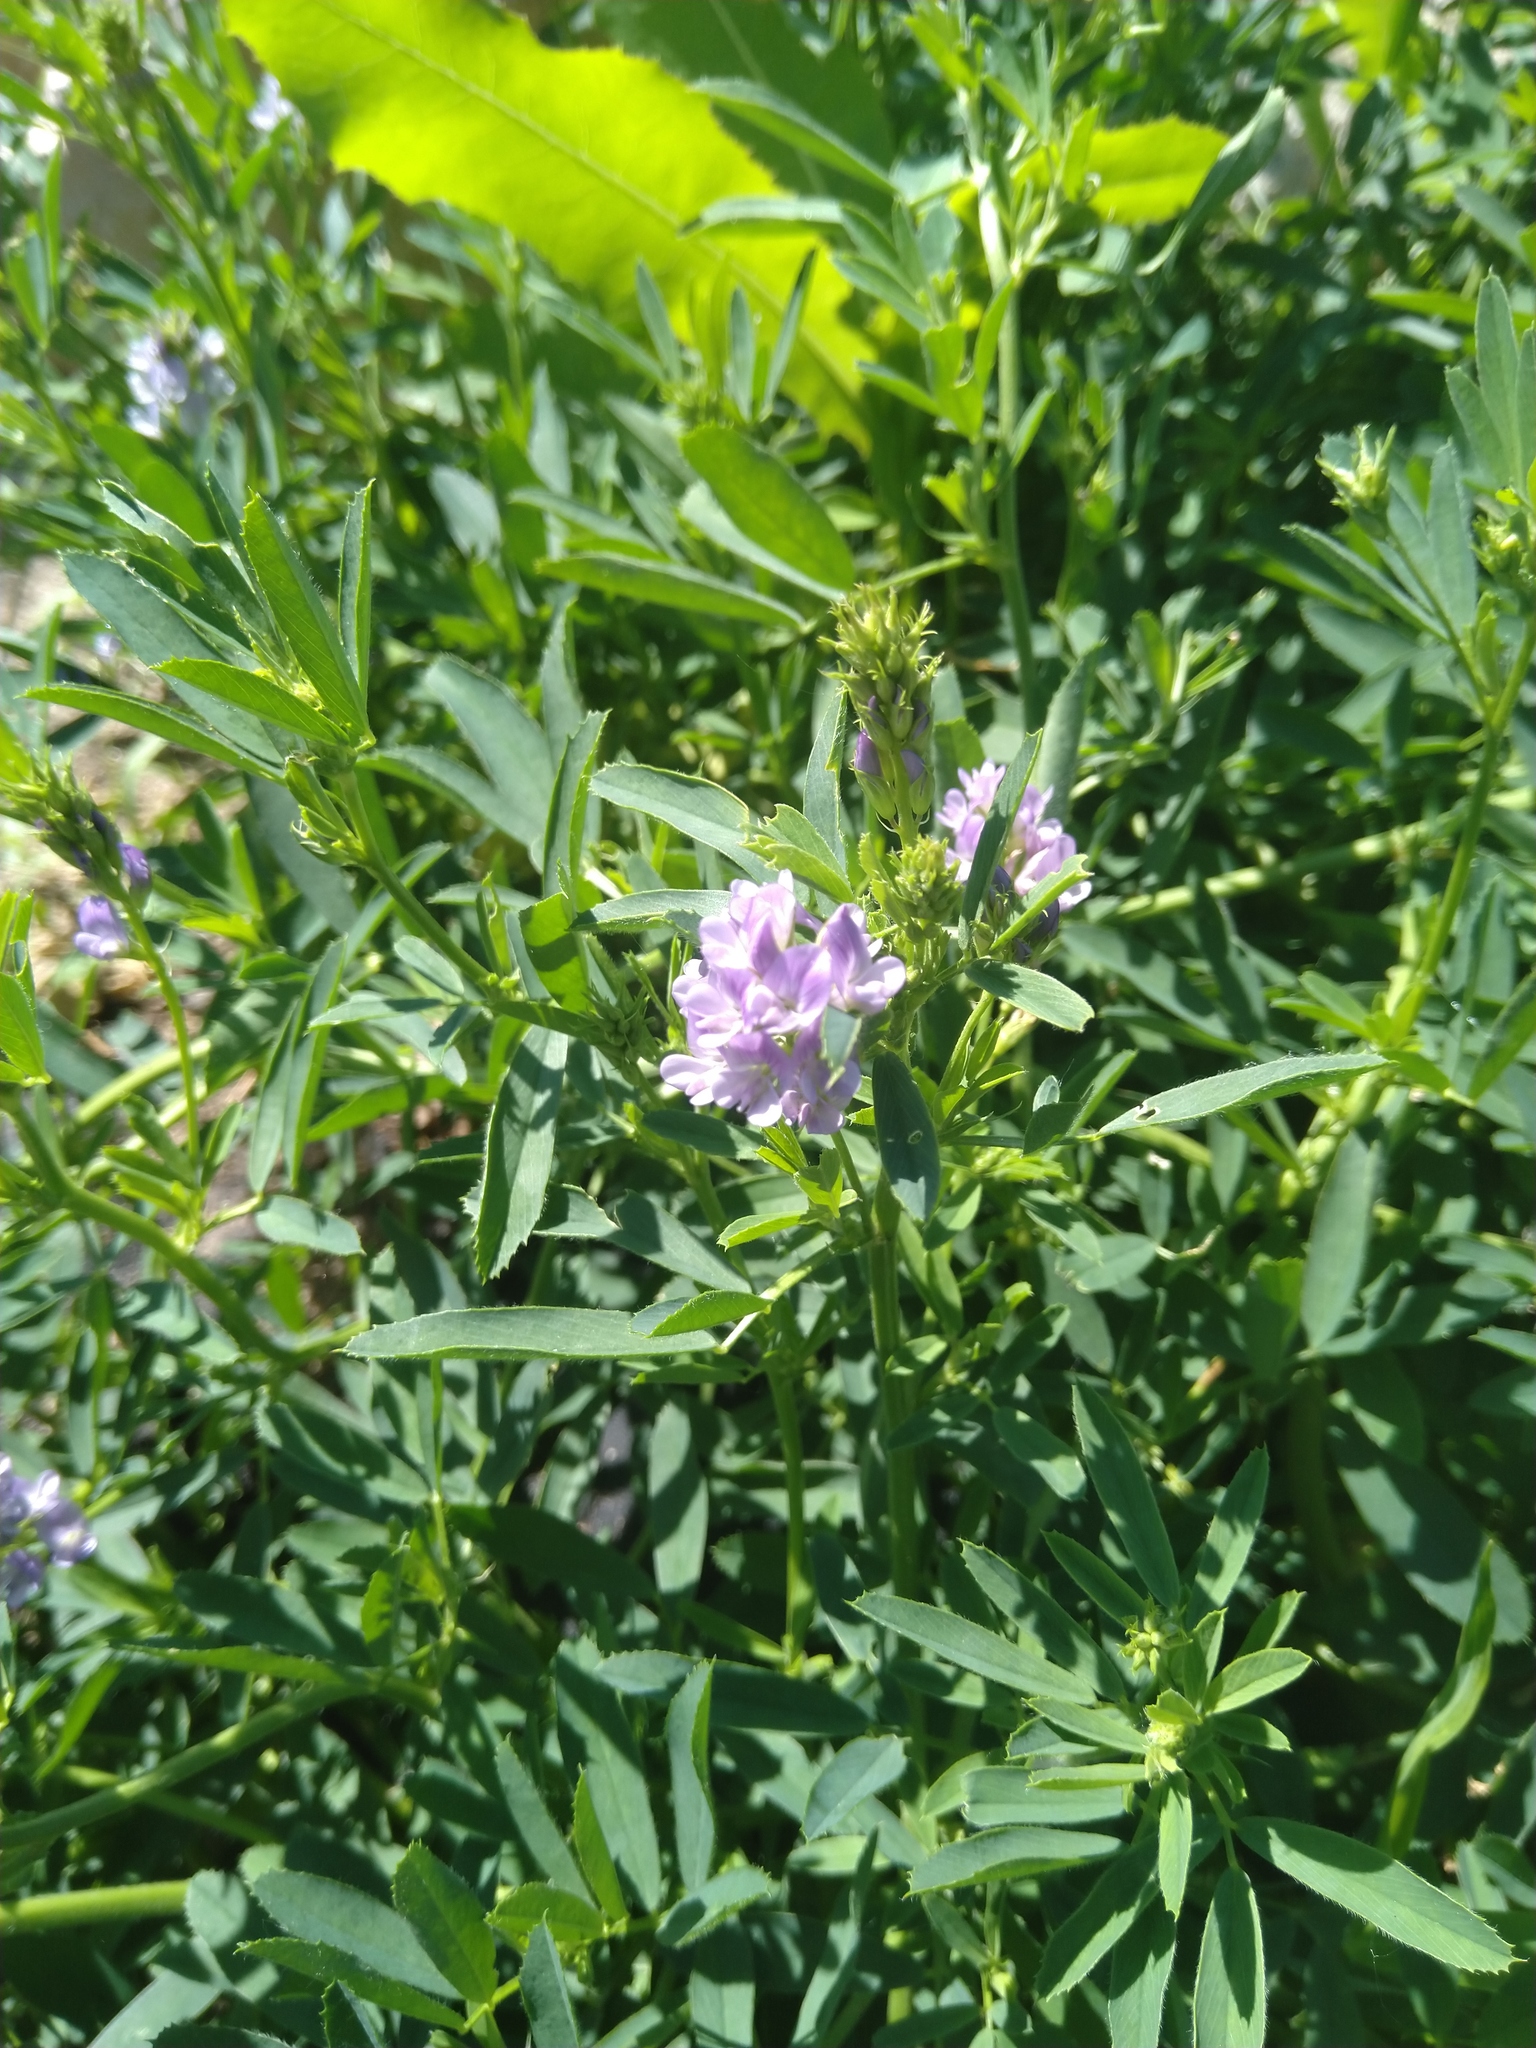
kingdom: Plantae
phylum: Tracheophyta
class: Magnoliopsida
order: Fabales
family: Fabaceae
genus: Medicago
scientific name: Medicago sativa
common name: Alfalfa
